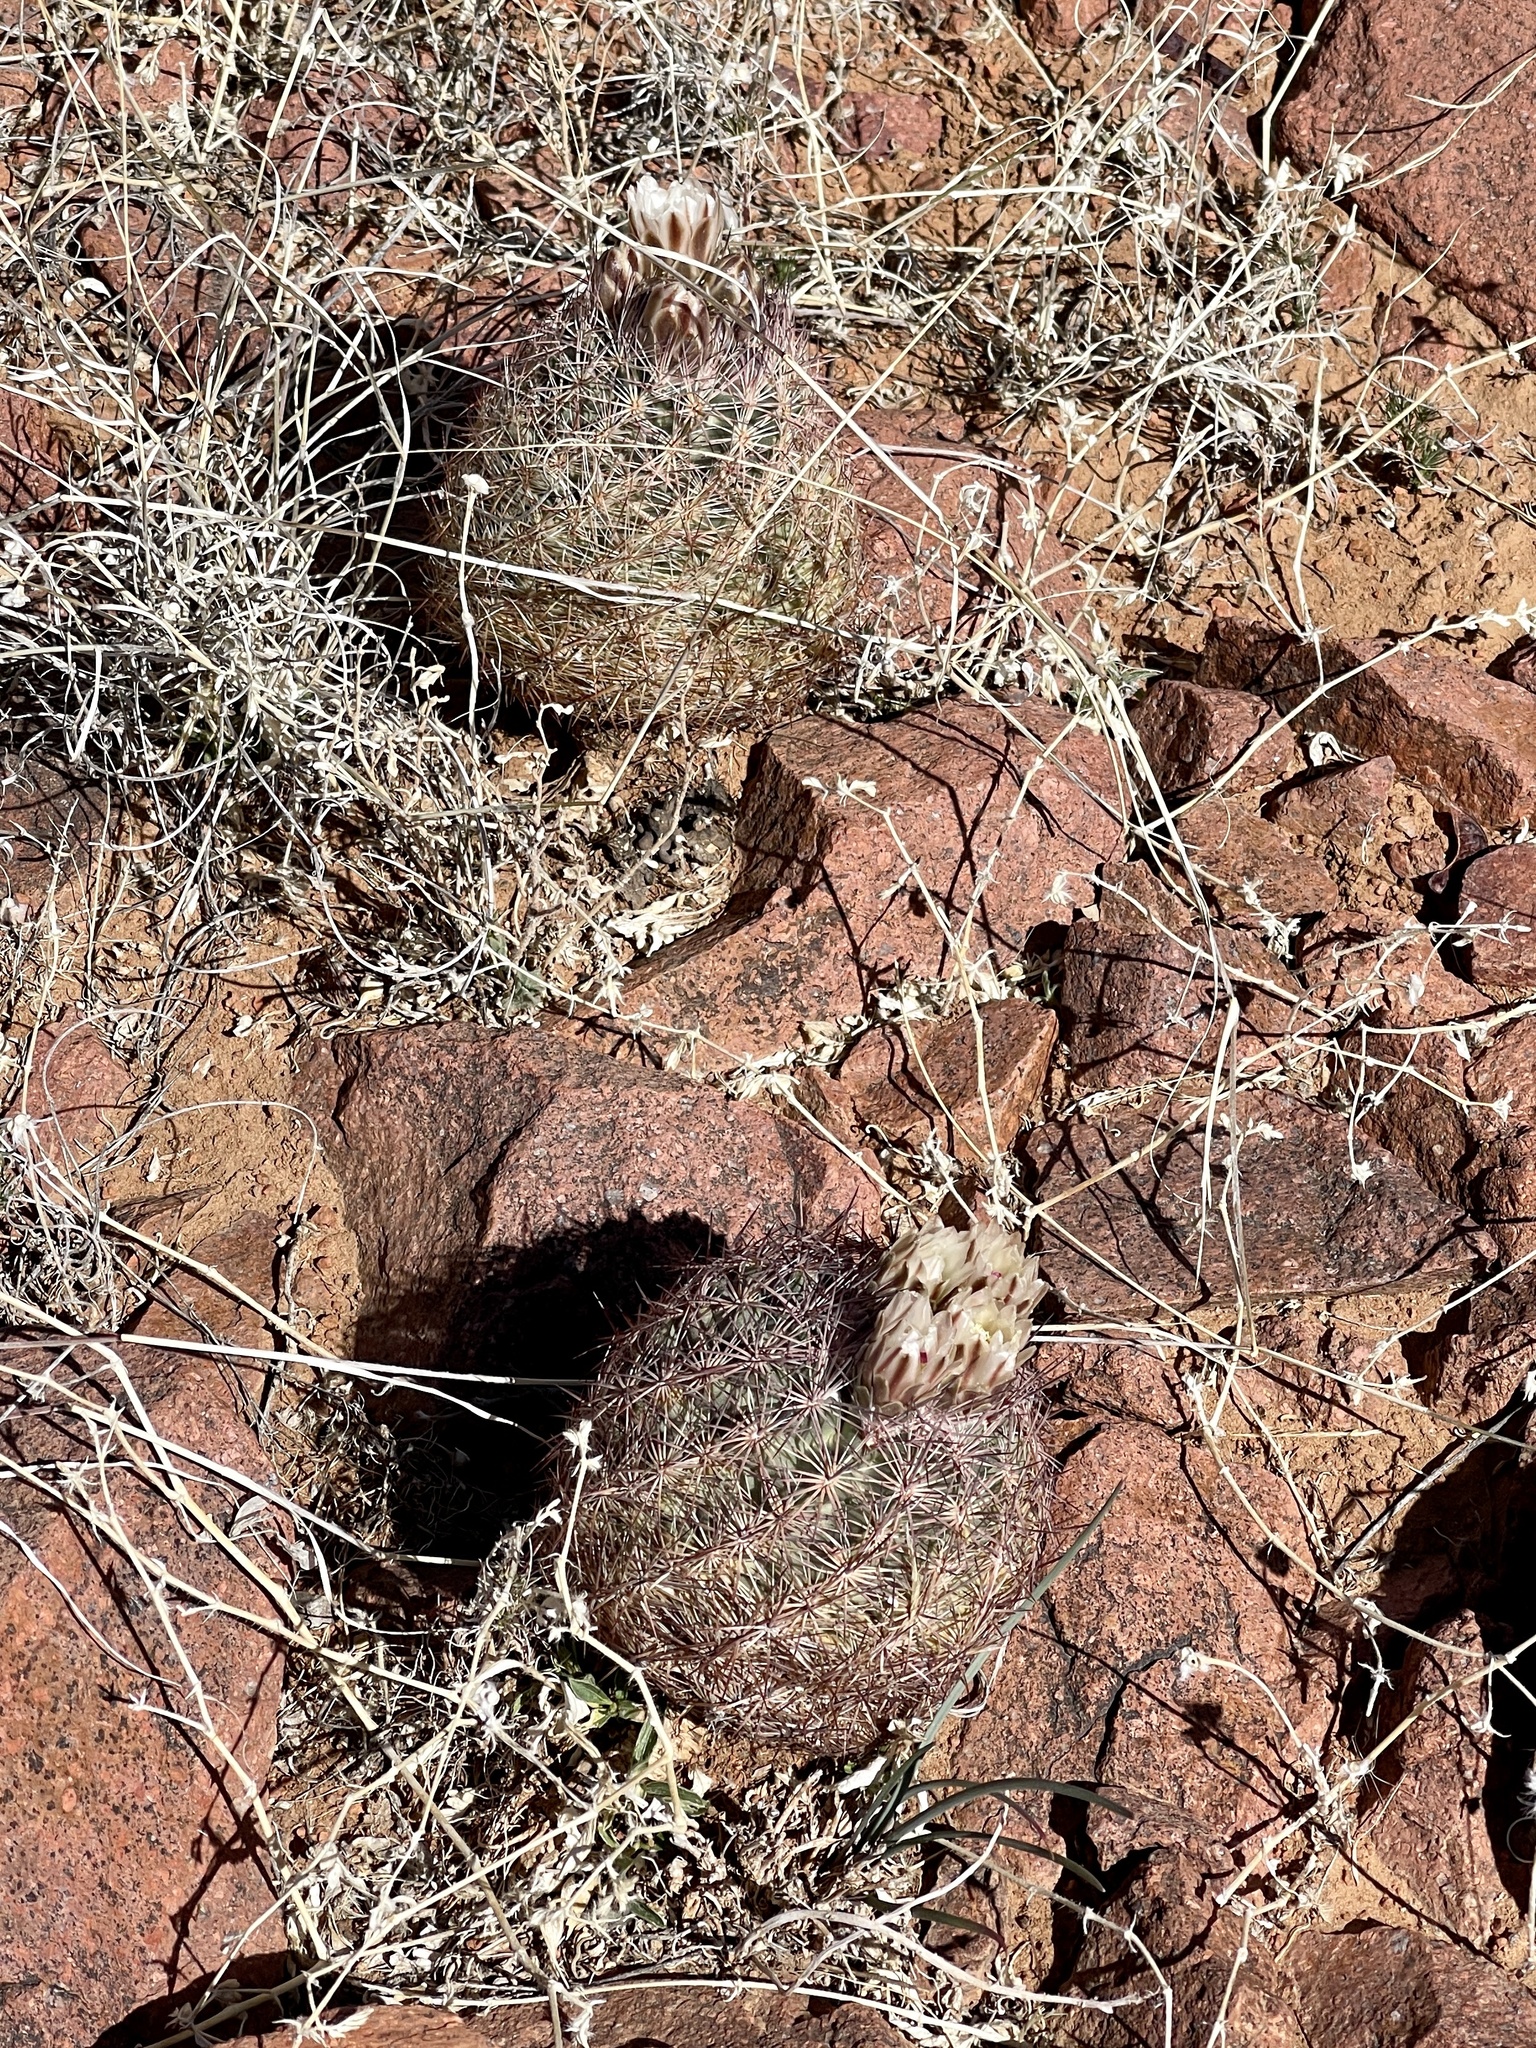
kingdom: Plantae
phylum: Tracheophyta
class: Magnoliopsida
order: Caryophyllales
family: Cactaceae
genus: Sclerocactus
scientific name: Sclerocactus intertextus
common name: White fish-hook cactus
